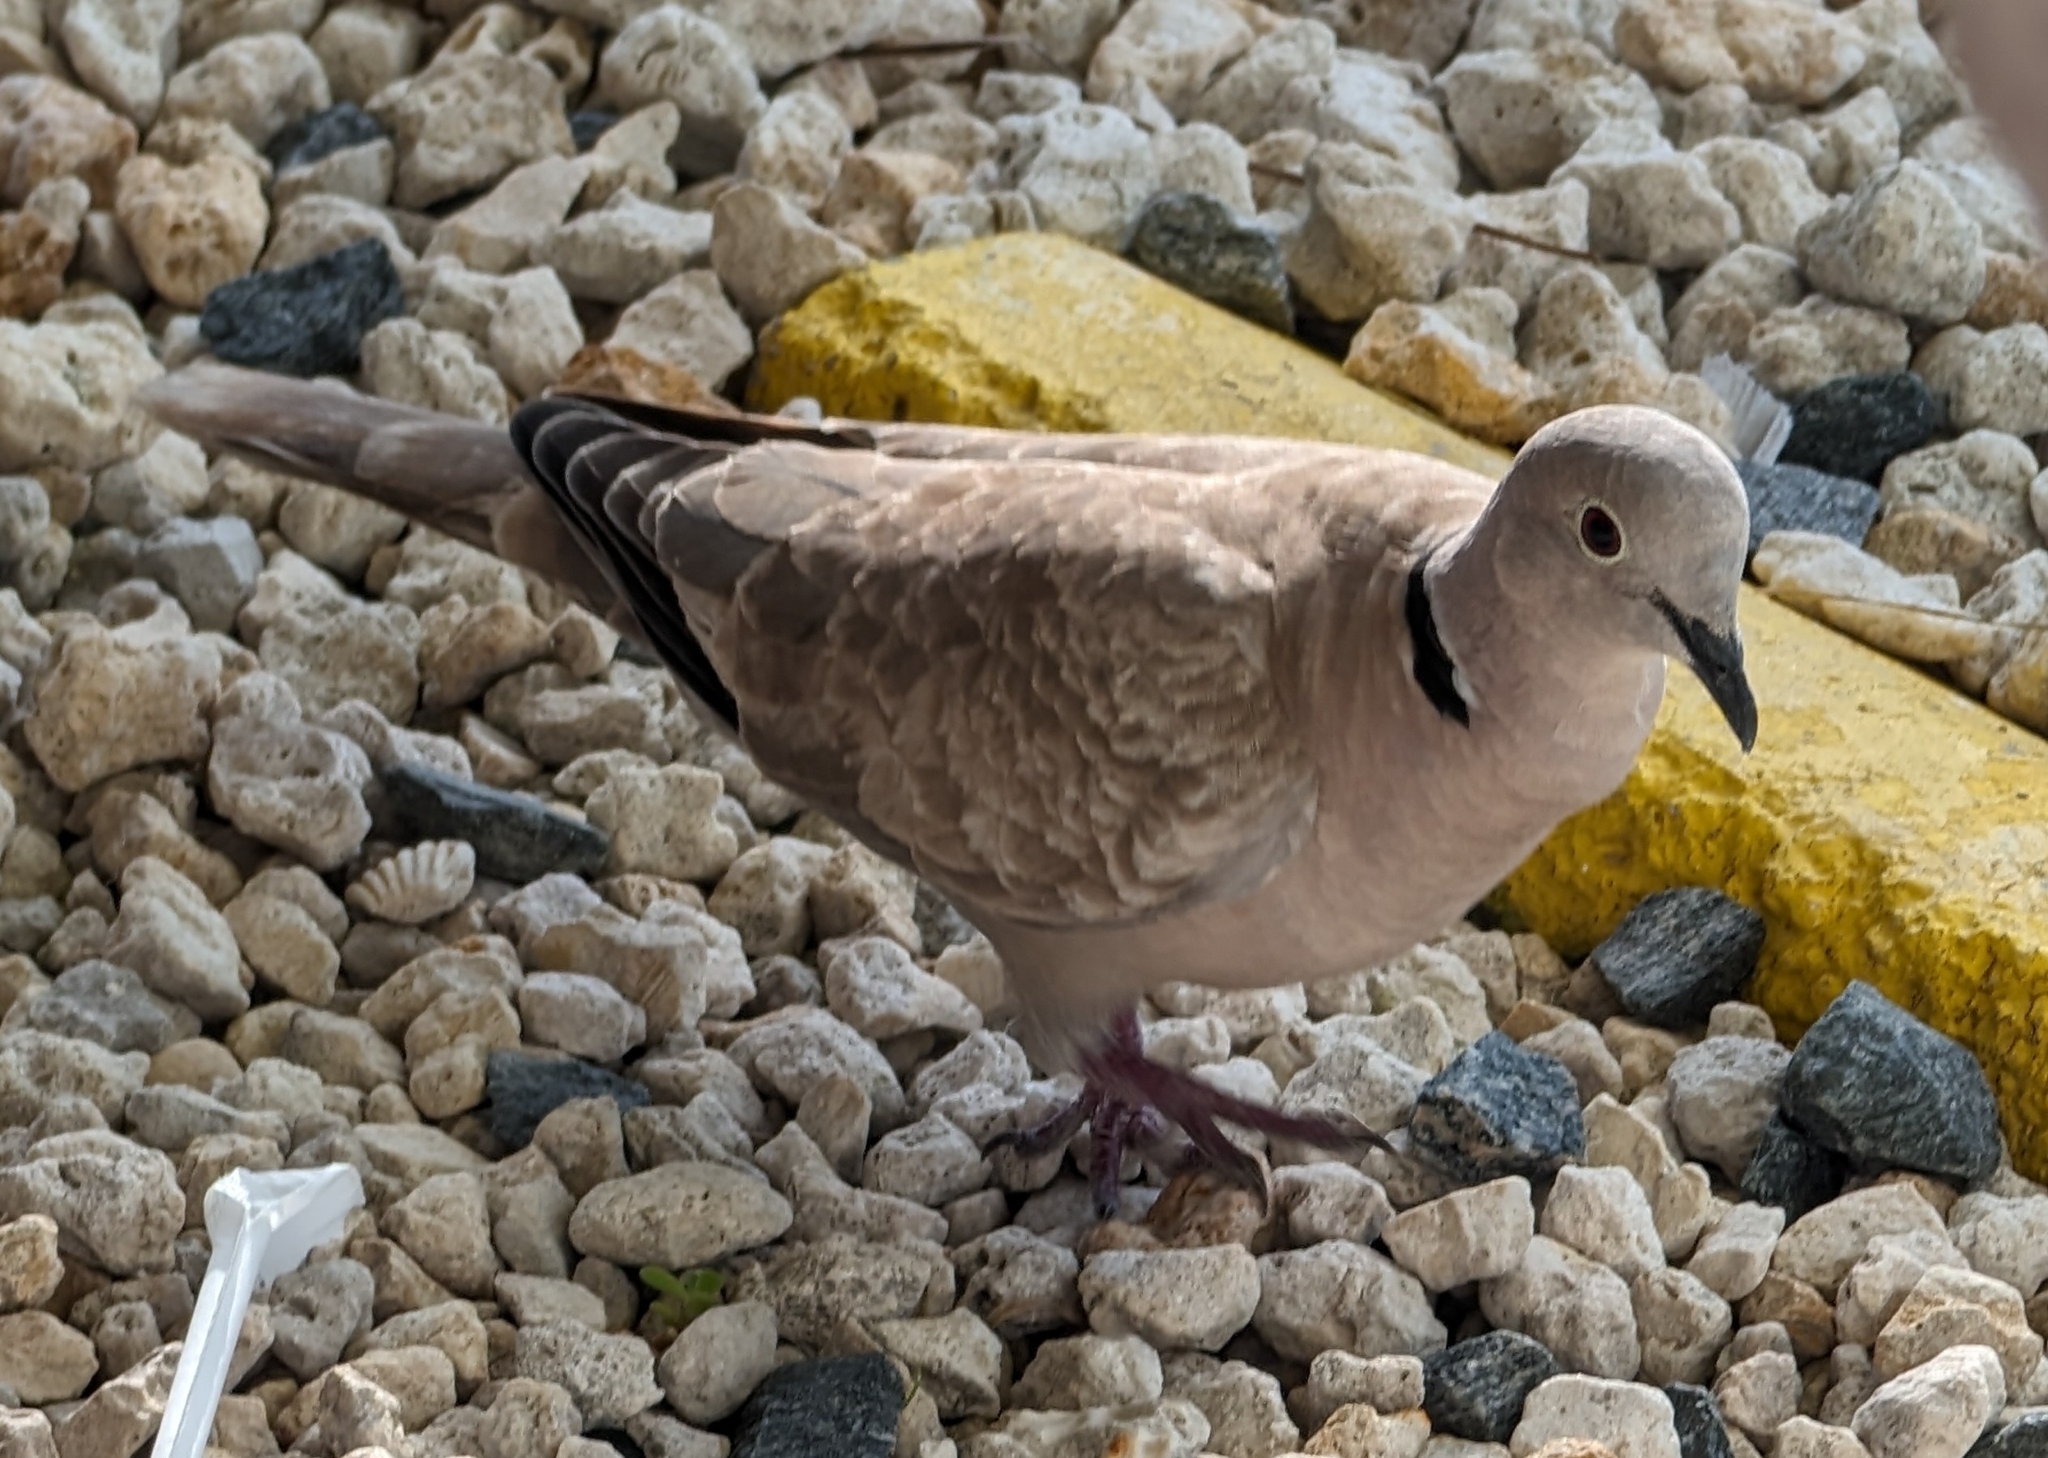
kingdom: Animalia
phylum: Chordata
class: Aves
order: Columbiformes
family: Columbidae
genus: Streptopelia
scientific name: Streptopelia decaocto
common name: Eurasian collared dove
